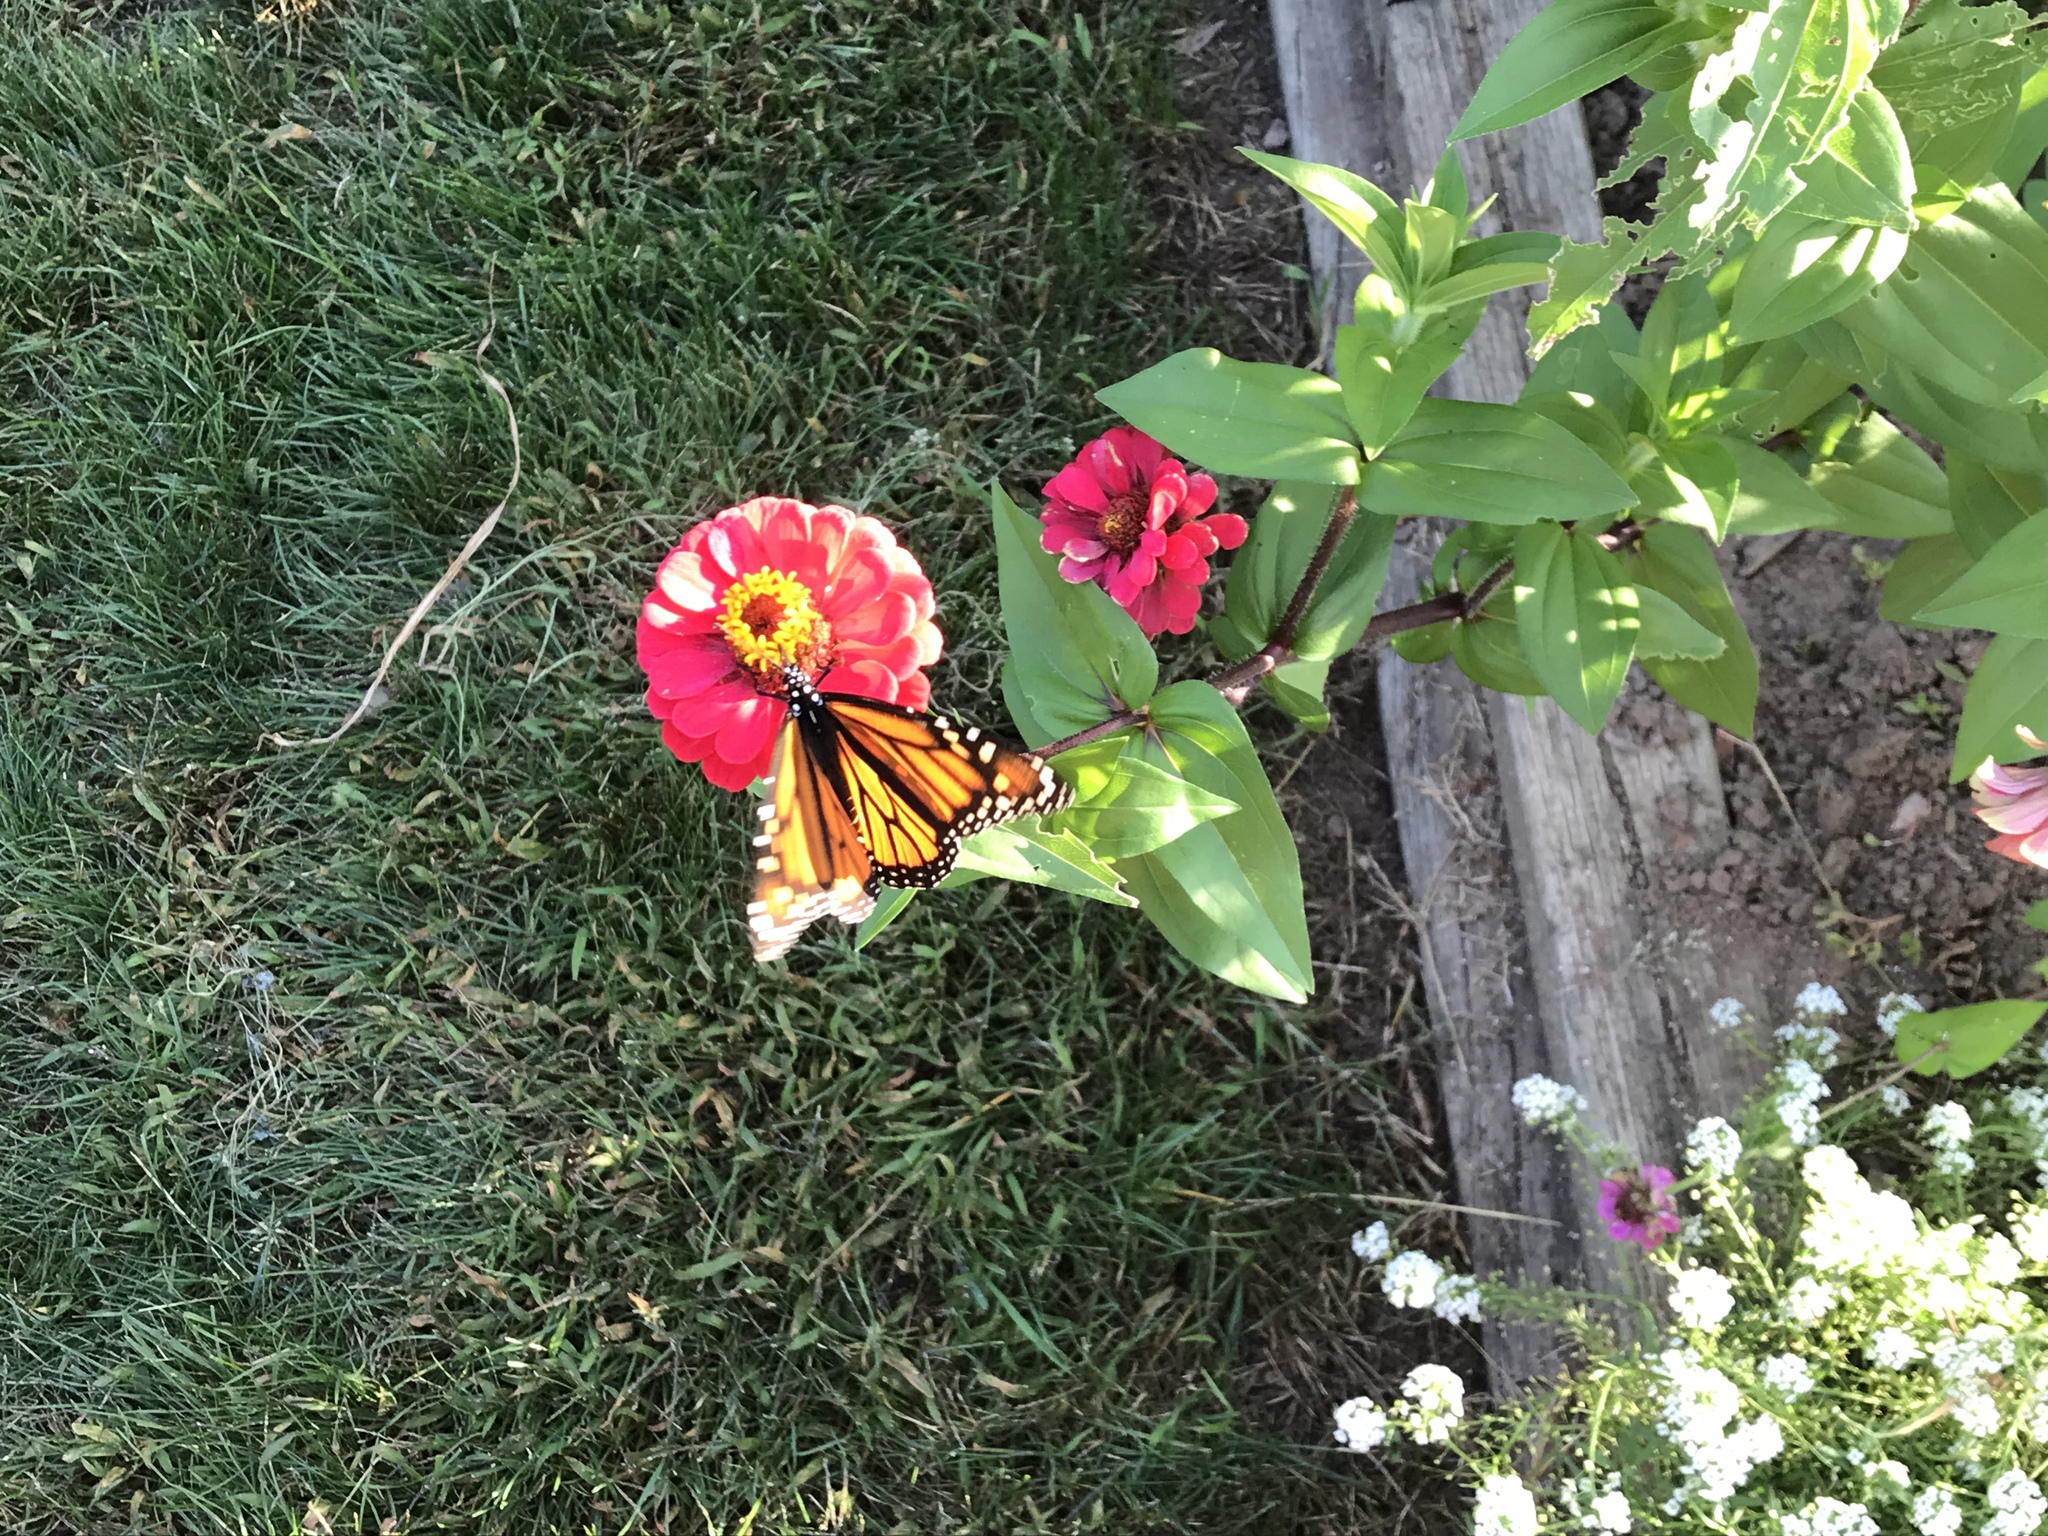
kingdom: Animalia
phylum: Arthropoda
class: Insecta
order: Lepidoptera
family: Nymphalidae
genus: Danaus
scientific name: Danaus plexippus
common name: Monarch
